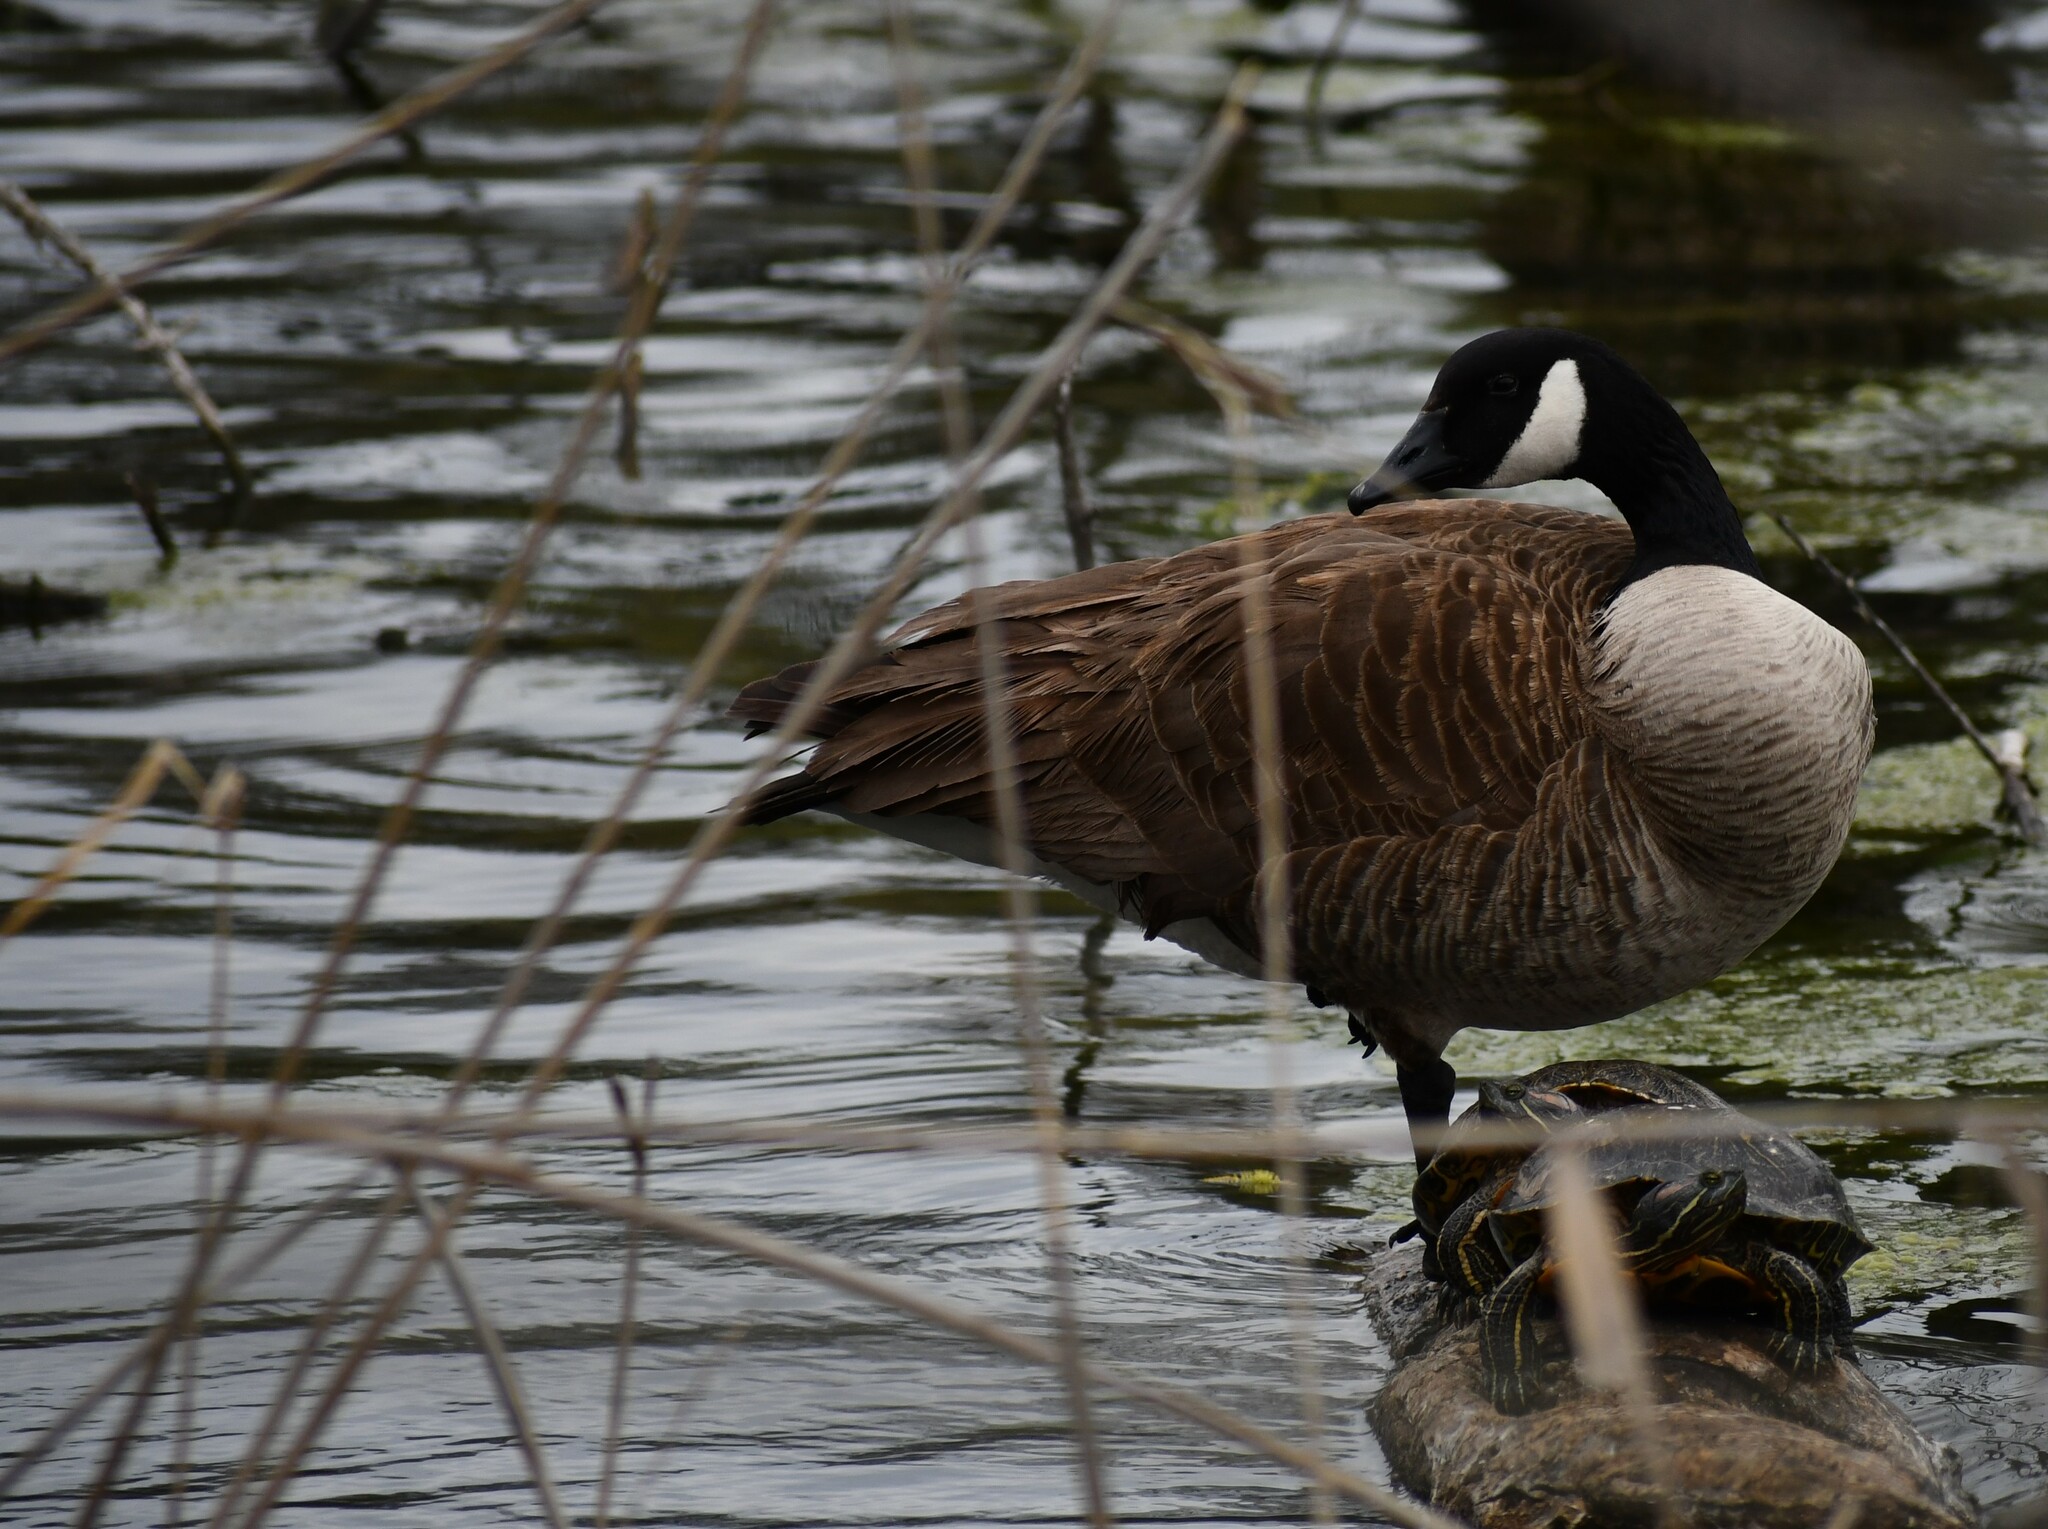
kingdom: Animalia
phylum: Chordata
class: Aves
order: Anseriformes
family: Anatidae
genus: Branta
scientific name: Branta canadensis
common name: Canada goose
